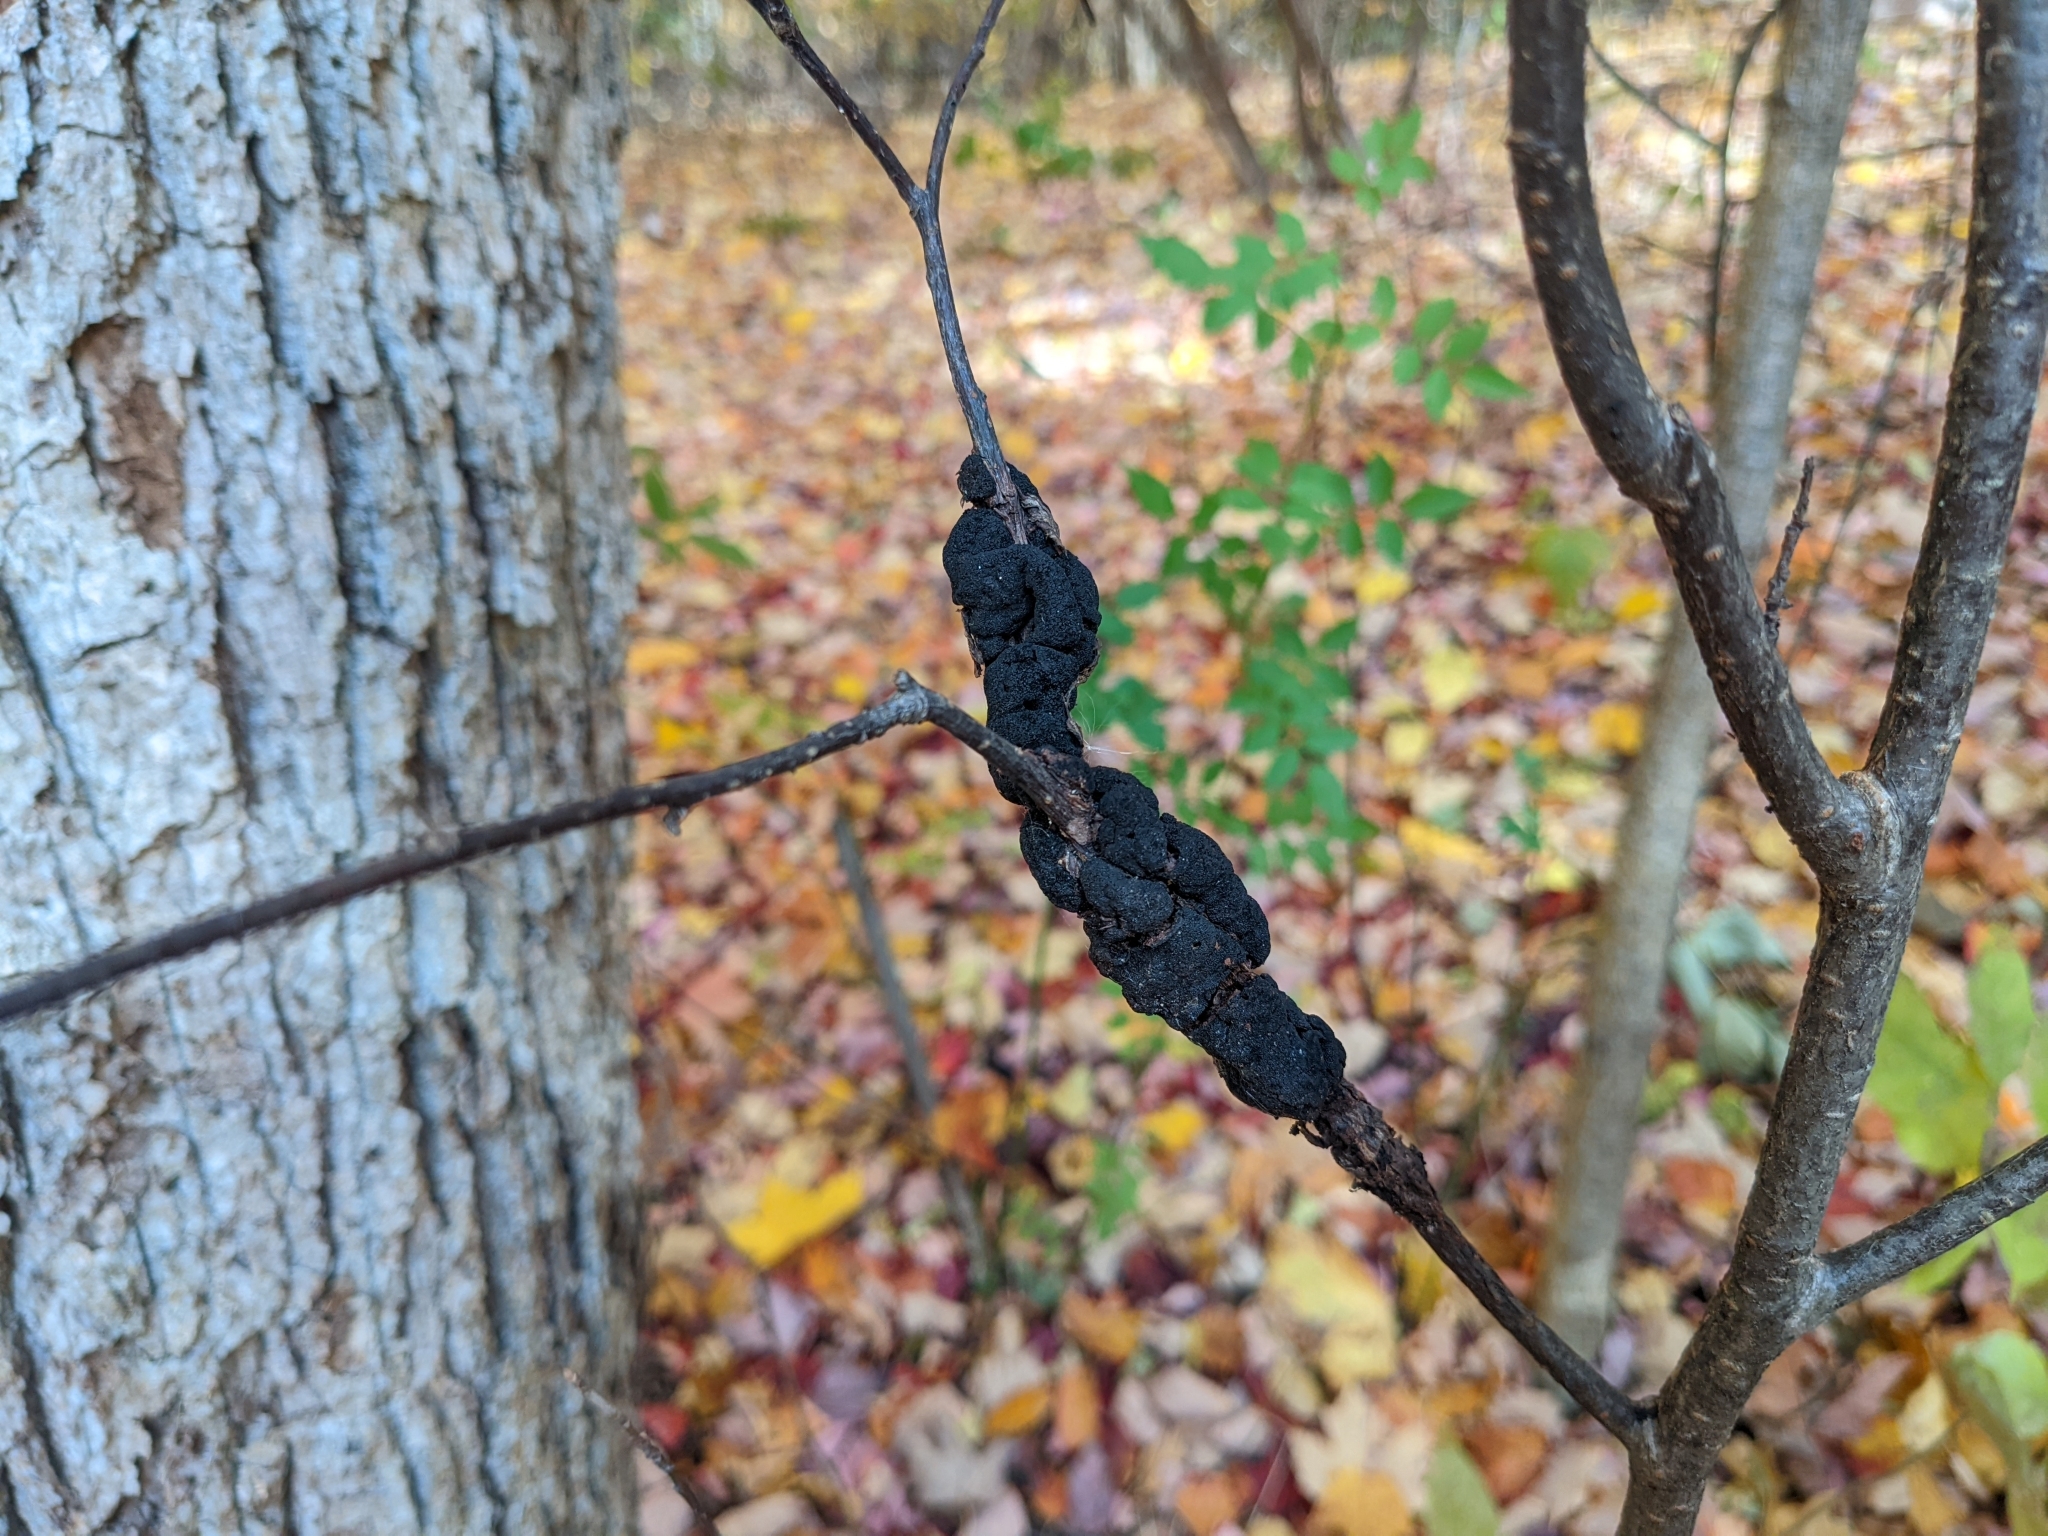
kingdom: Fungi
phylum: Ascomycota
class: Dothideomycetes
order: Venturiales
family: Venturiaceae
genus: Apiosporina
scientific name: Apiosporina morbosa
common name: Black knot
